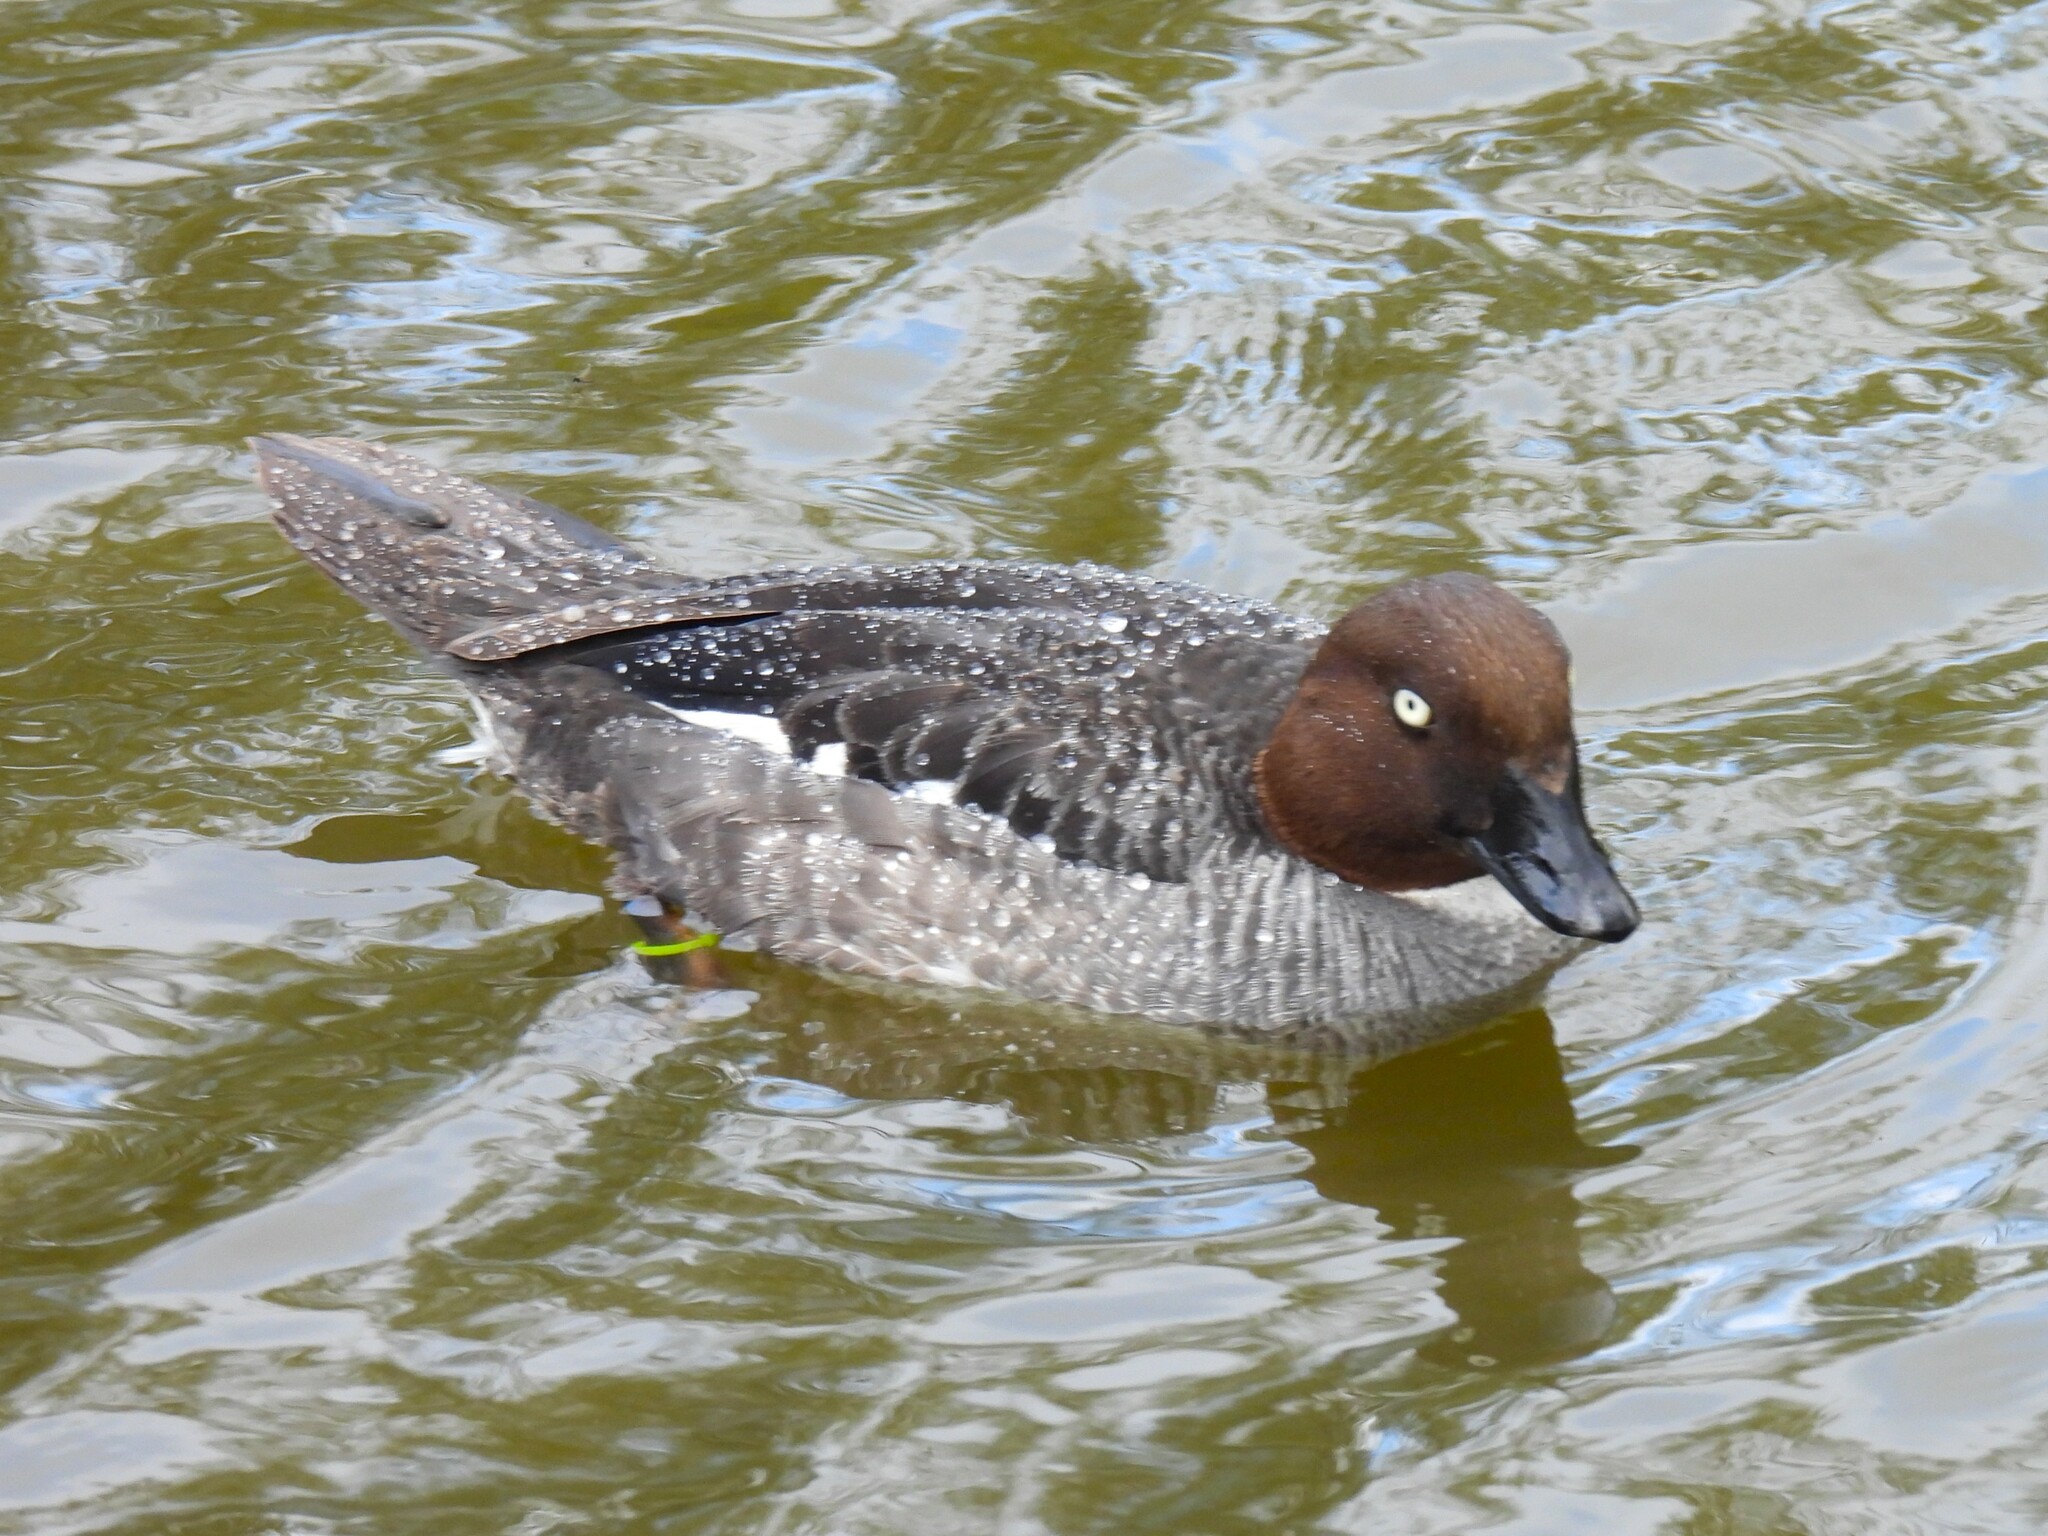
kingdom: Animalia
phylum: Chordata
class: Aves
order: Anseriformes
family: Anatidae
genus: Bucephala
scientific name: Bucephala clangula
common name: Common goldeneye
